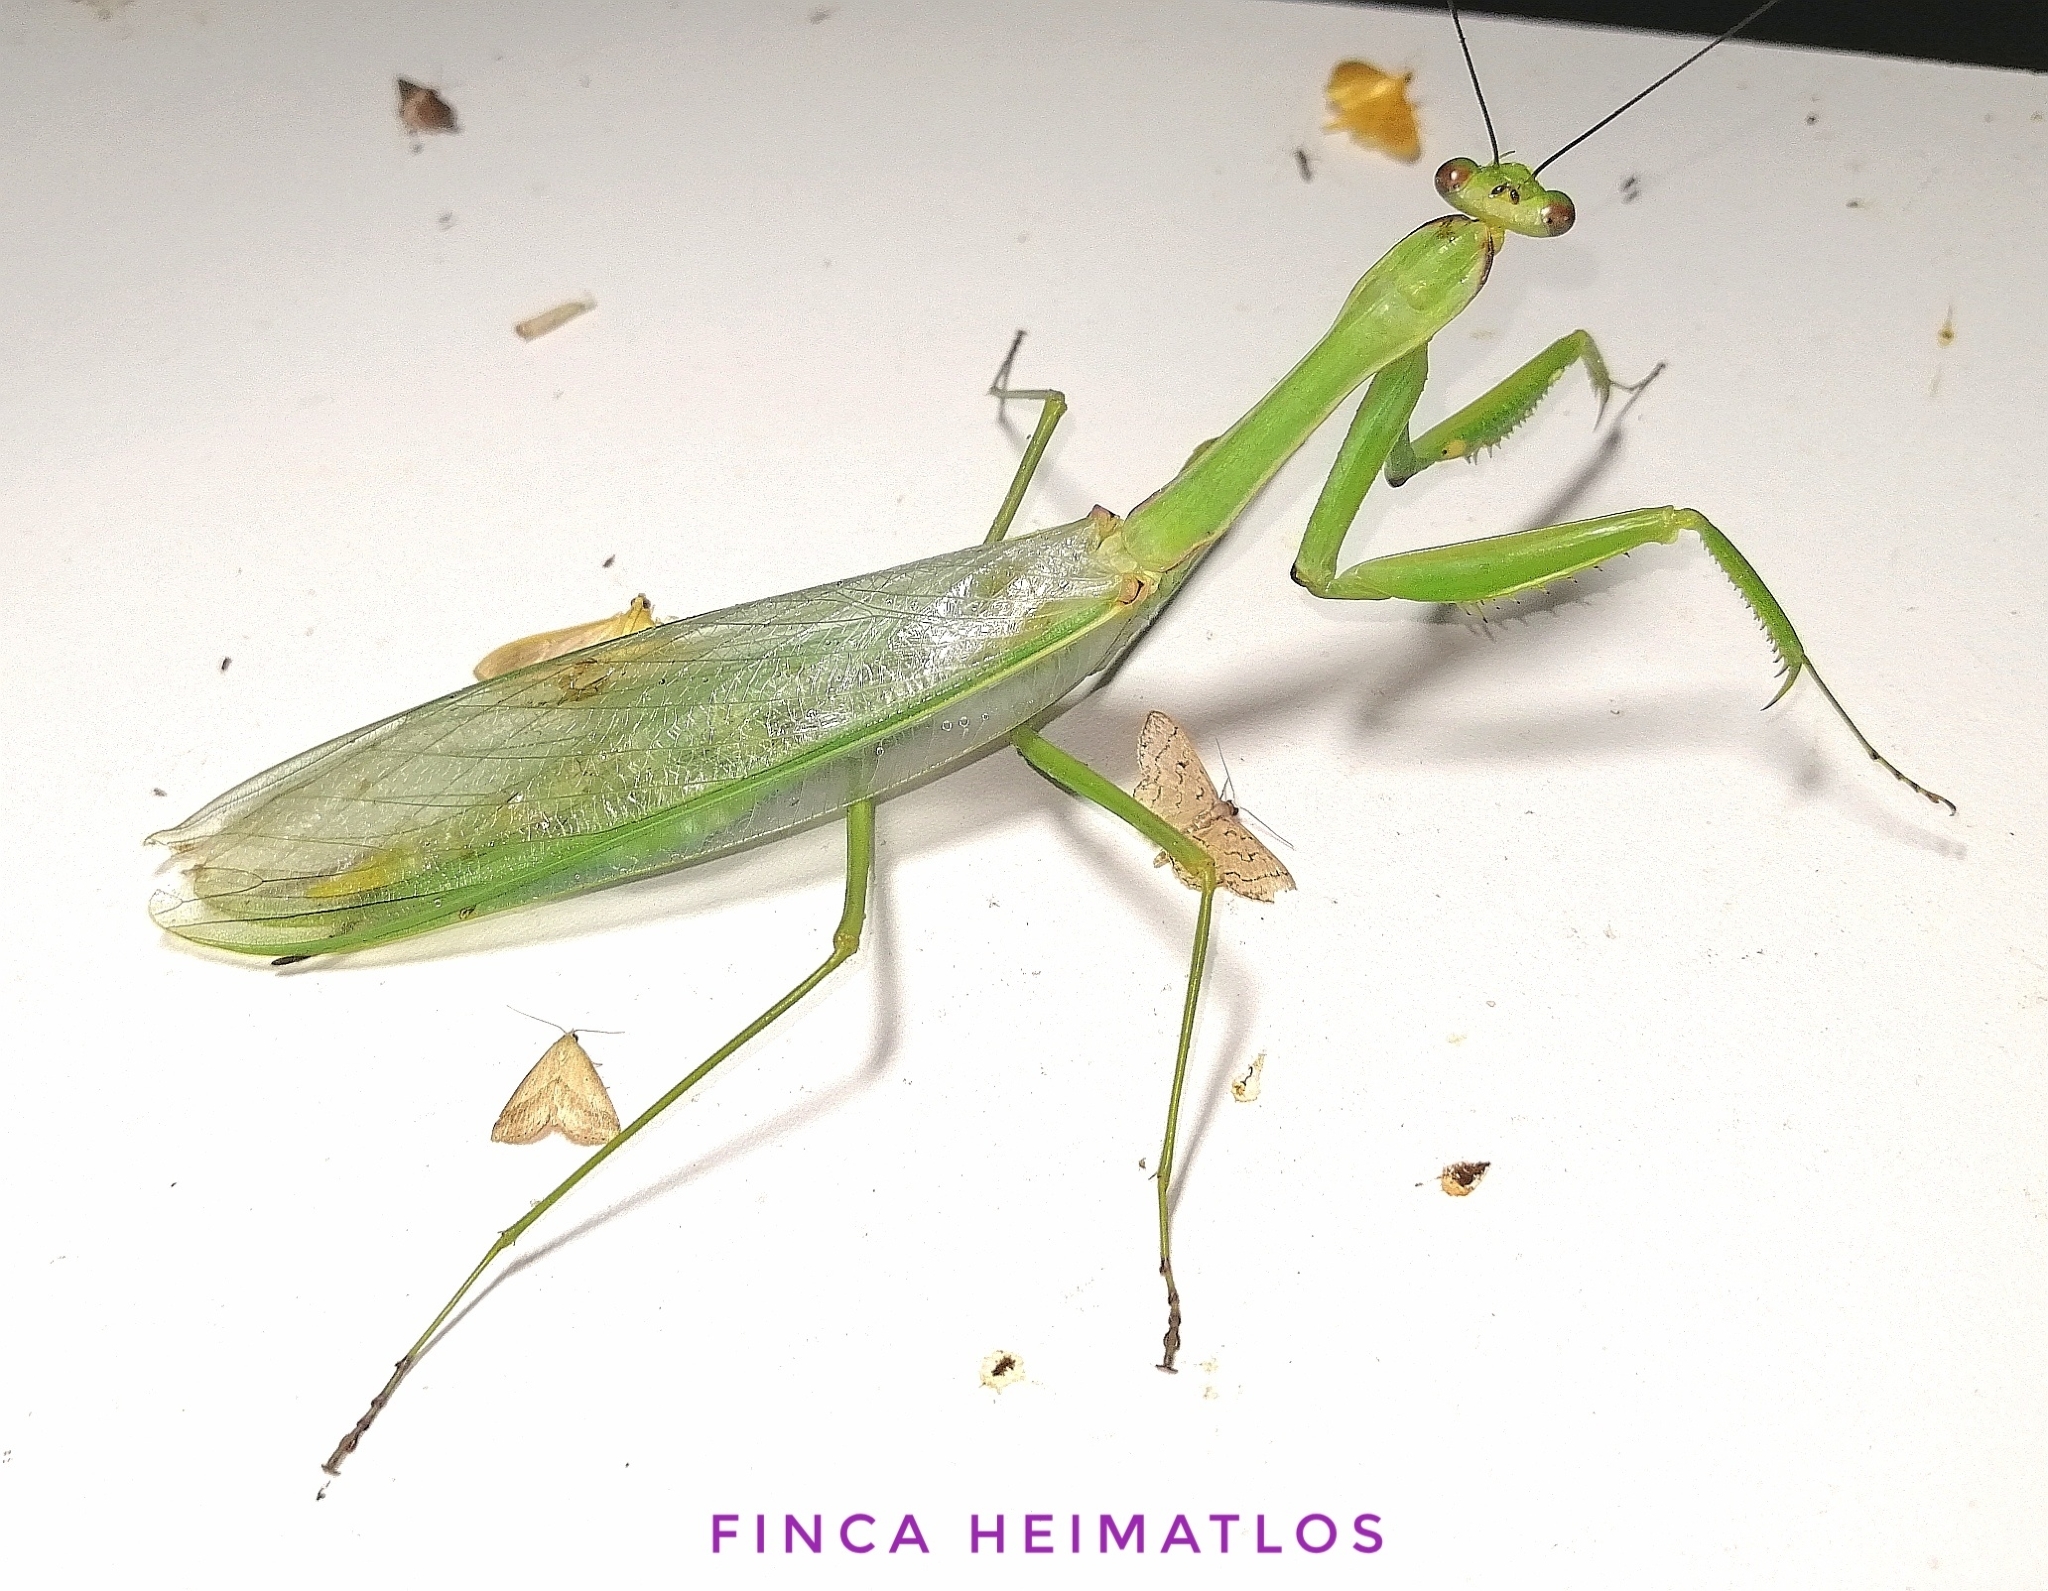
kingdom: Animalia
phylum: Arthropoda
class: Insecta
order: Mantodea
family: Photinaidae
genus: Macromantis
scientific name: Macromantis hyalina
